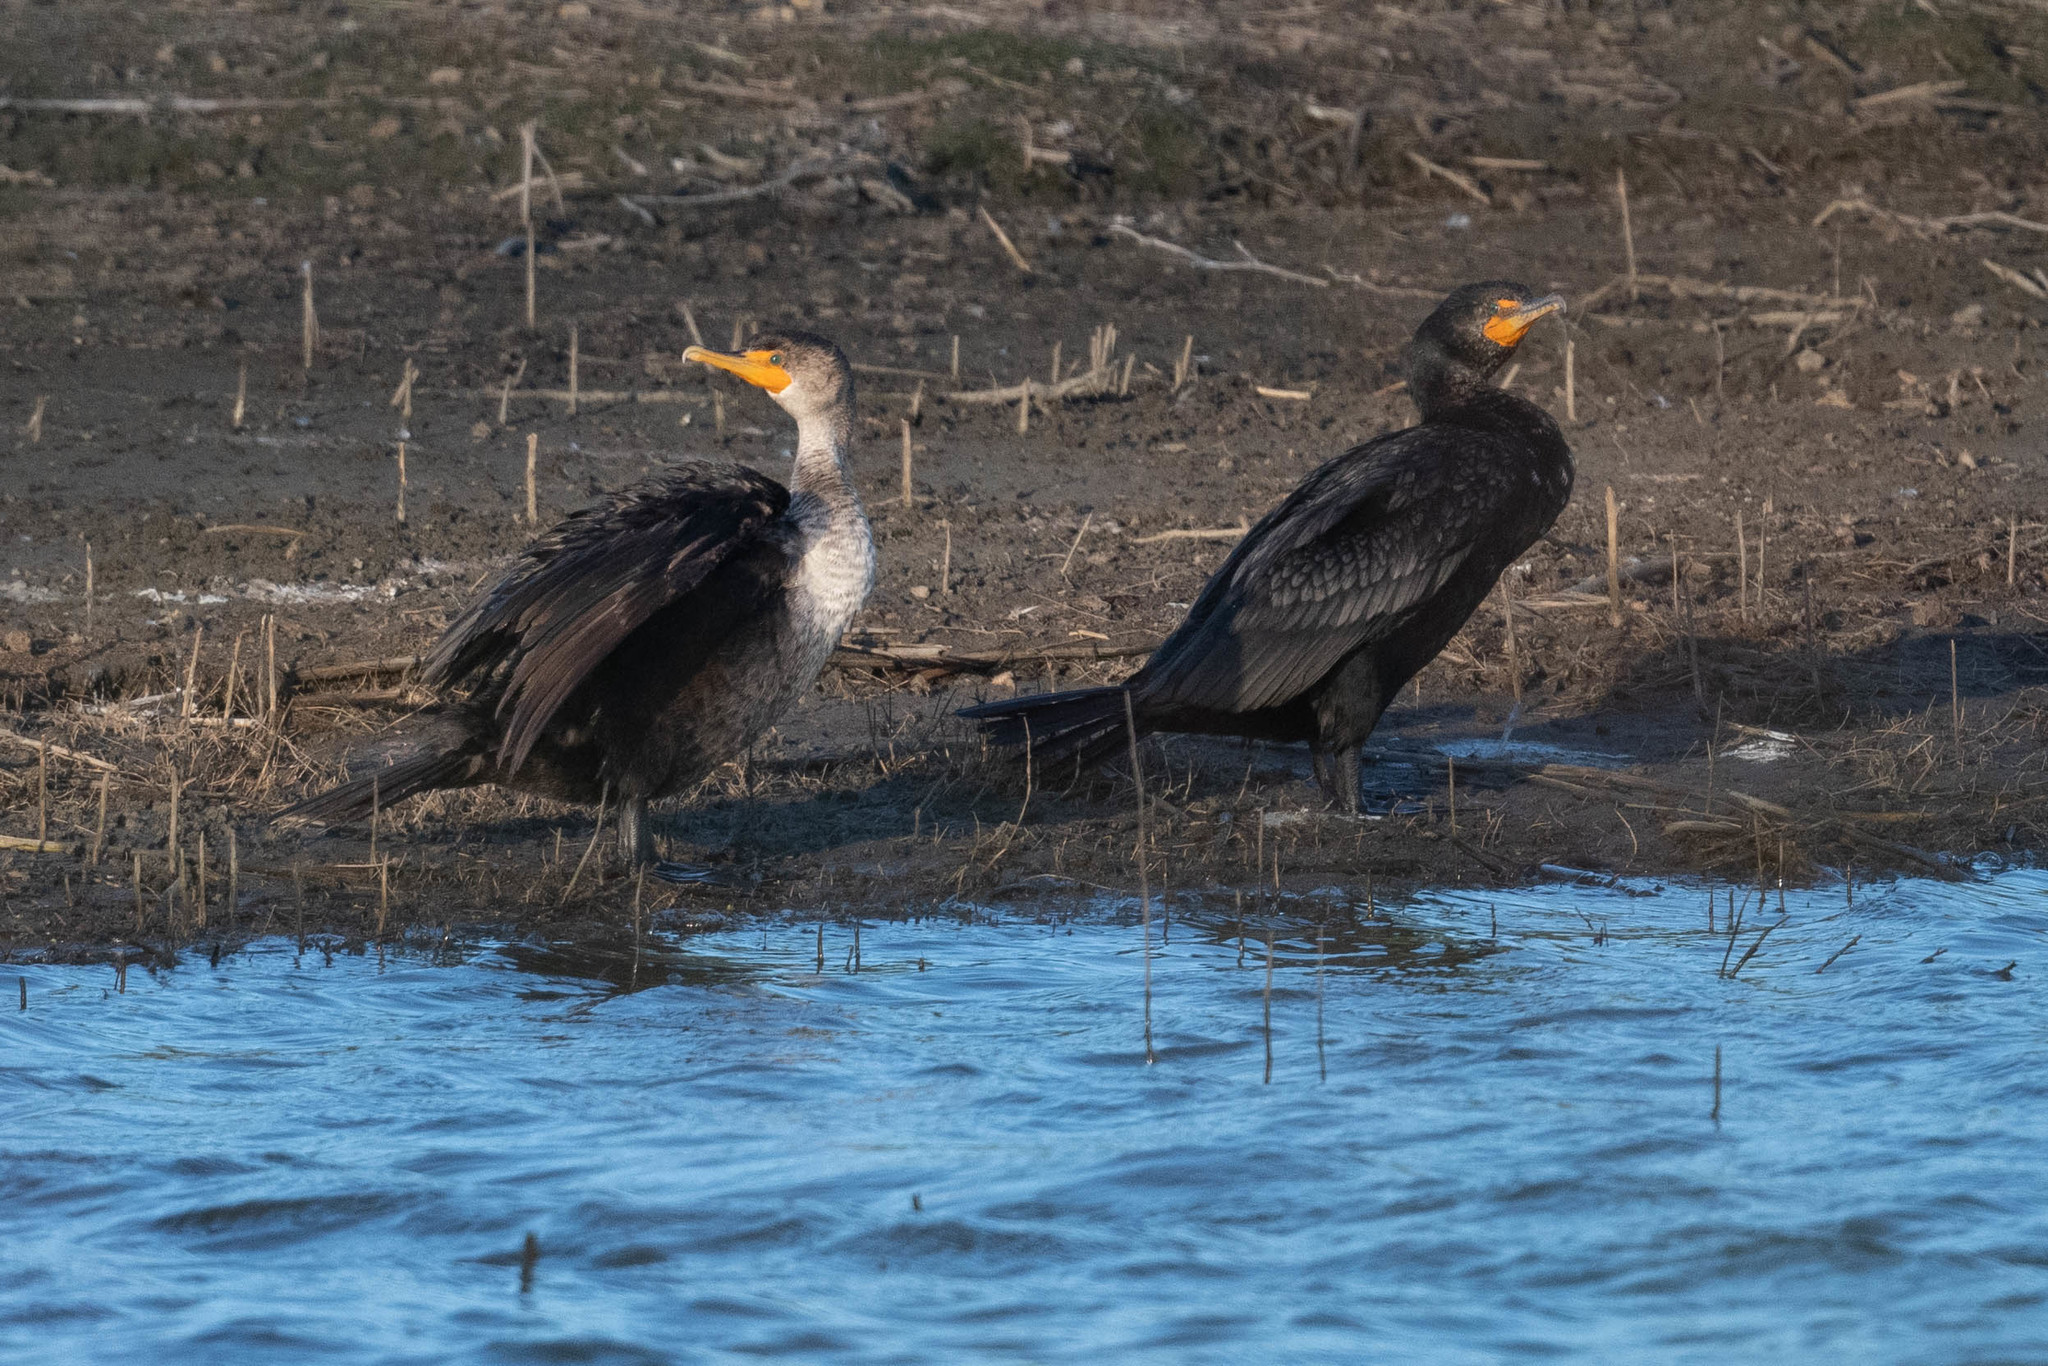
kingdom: Animalia
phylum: Chordata
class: Aves
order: Suliformes
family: Phalacrocoracidae
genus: Phalacrocorax
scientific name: Phalacrocorax auritus
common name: Double-crested cormorant
